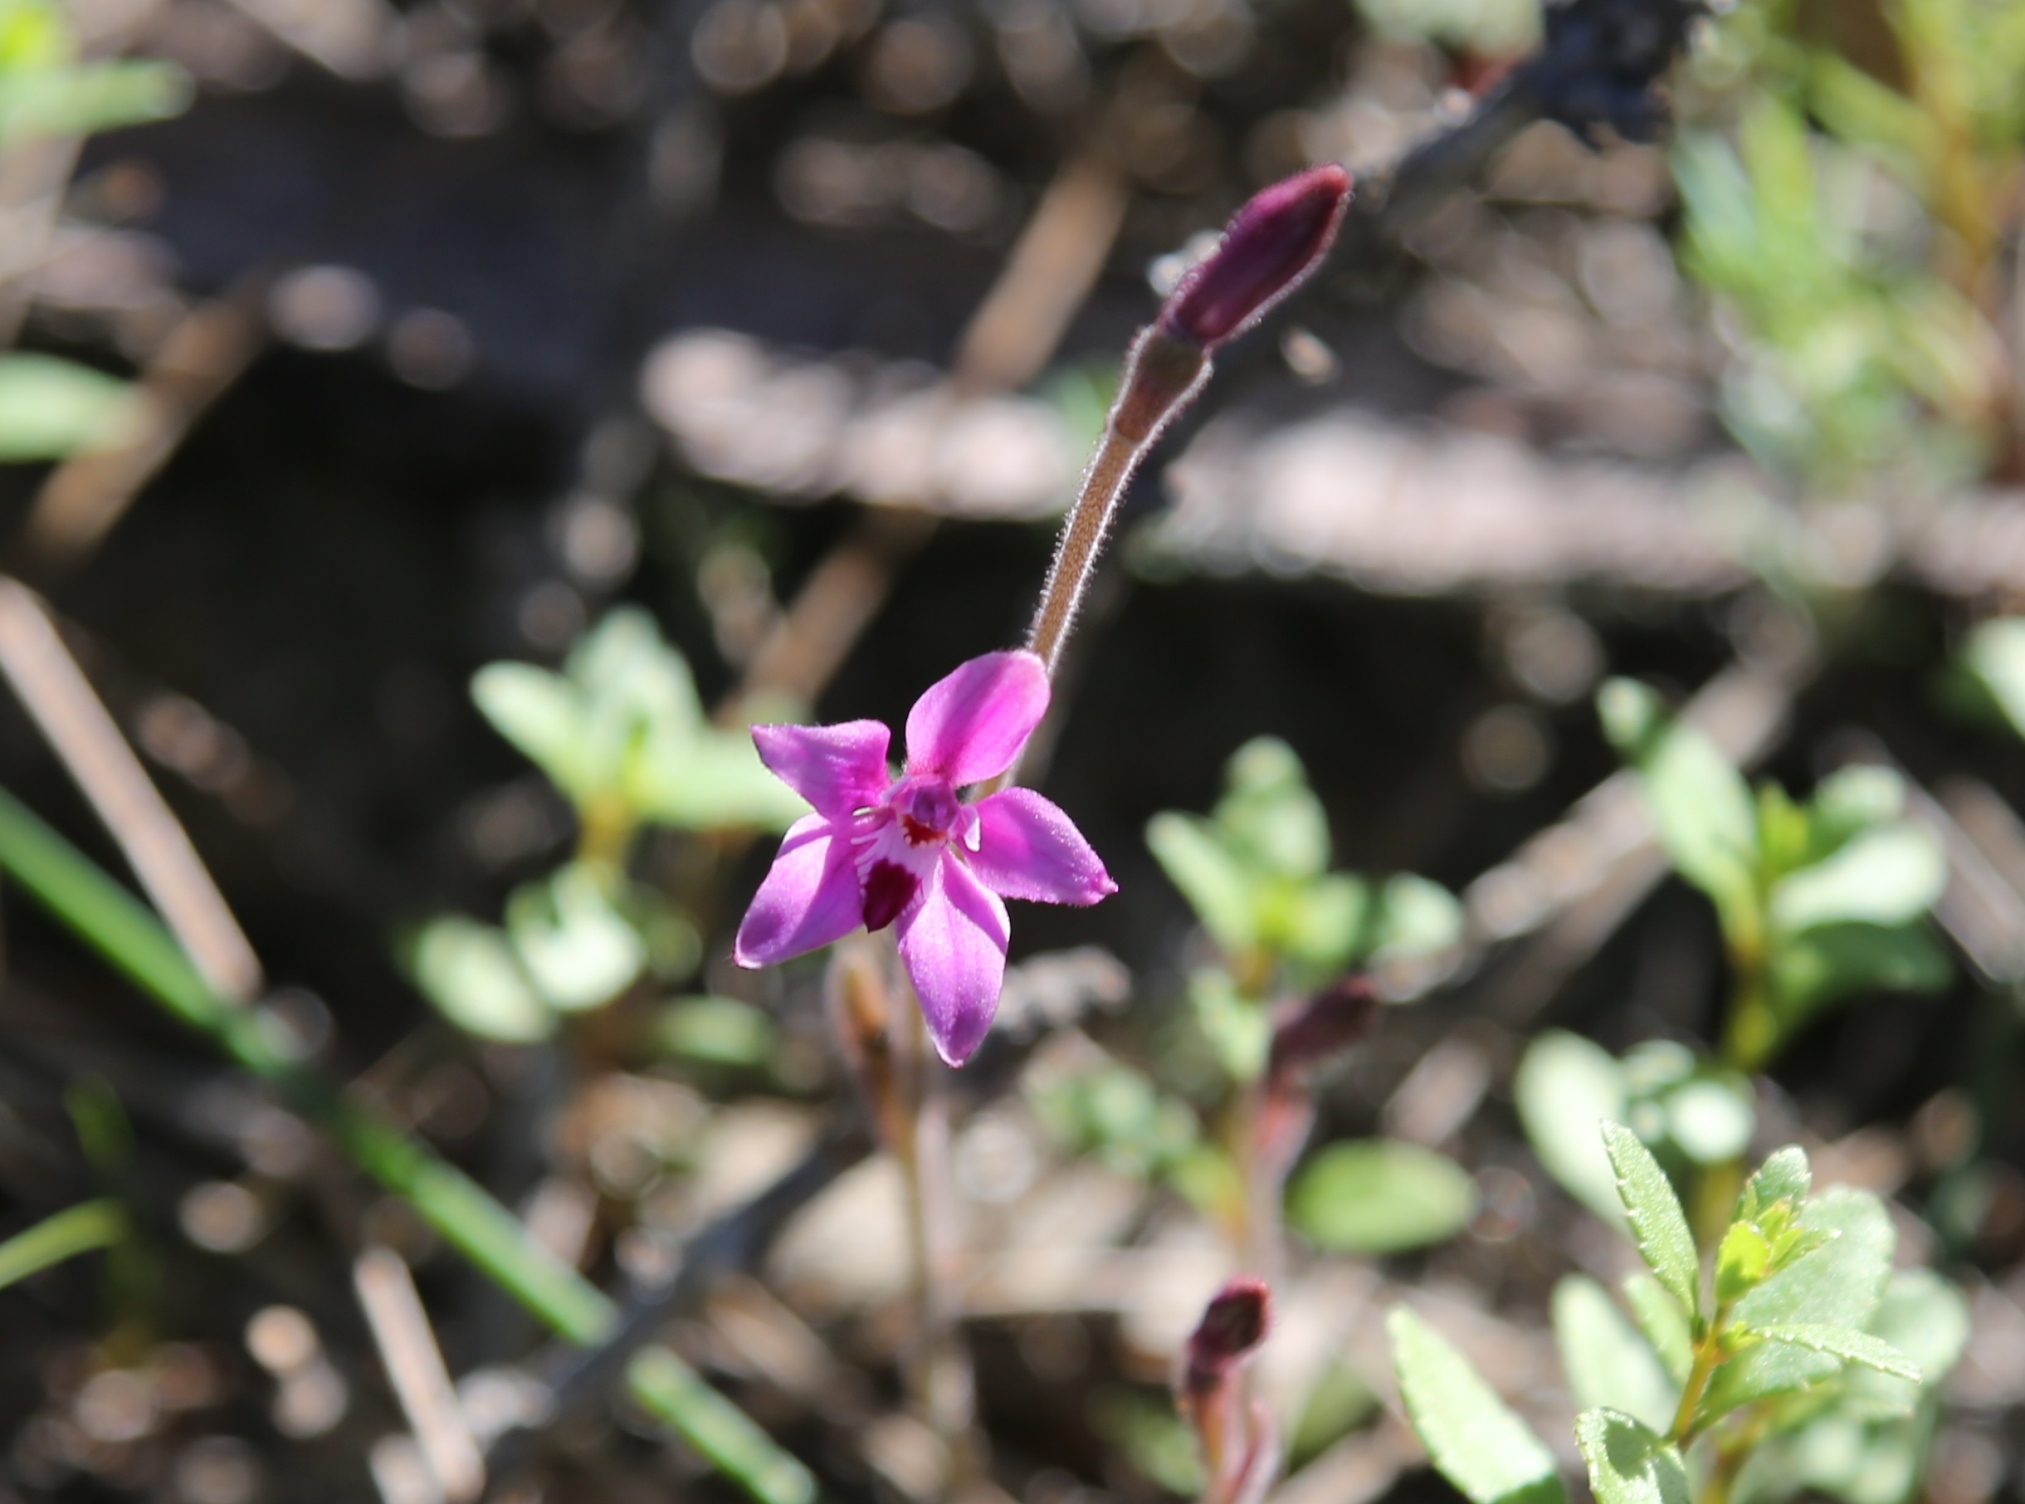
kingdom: Plantae
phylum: Tracheophyta
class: Liliopsida
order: Asparagales
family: Orchidaceae
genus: Caladenia
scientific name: Caladenia reptans
